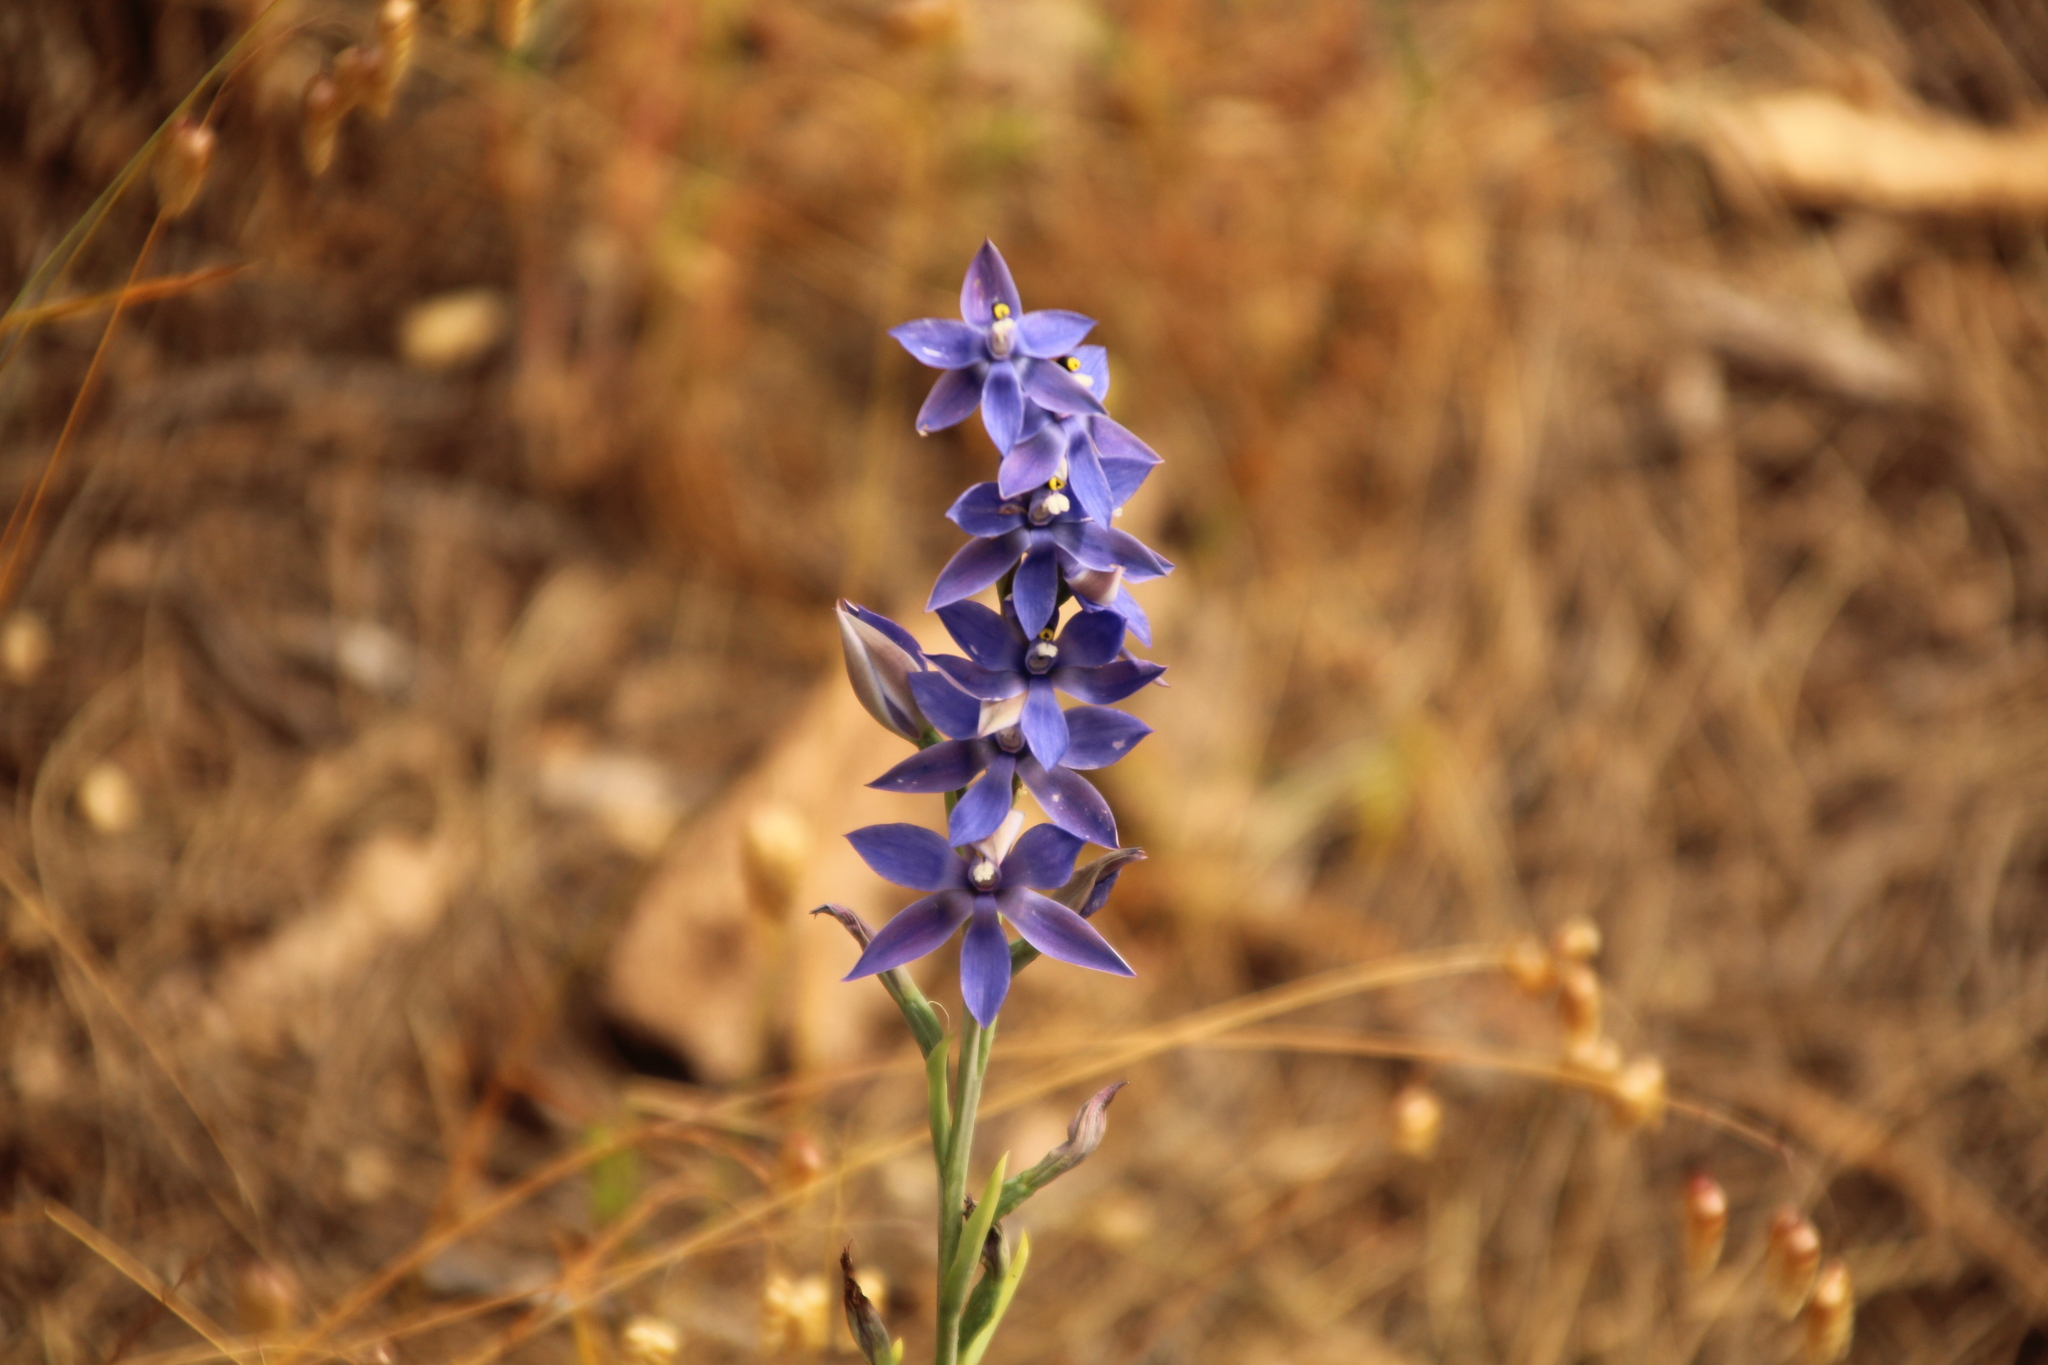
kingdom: Plantae
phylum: Tracheophyta
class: Liliopsida
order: Asparagales
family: Orchidaceae
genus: Thelymitra
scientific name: Thelymitra macrophylla
